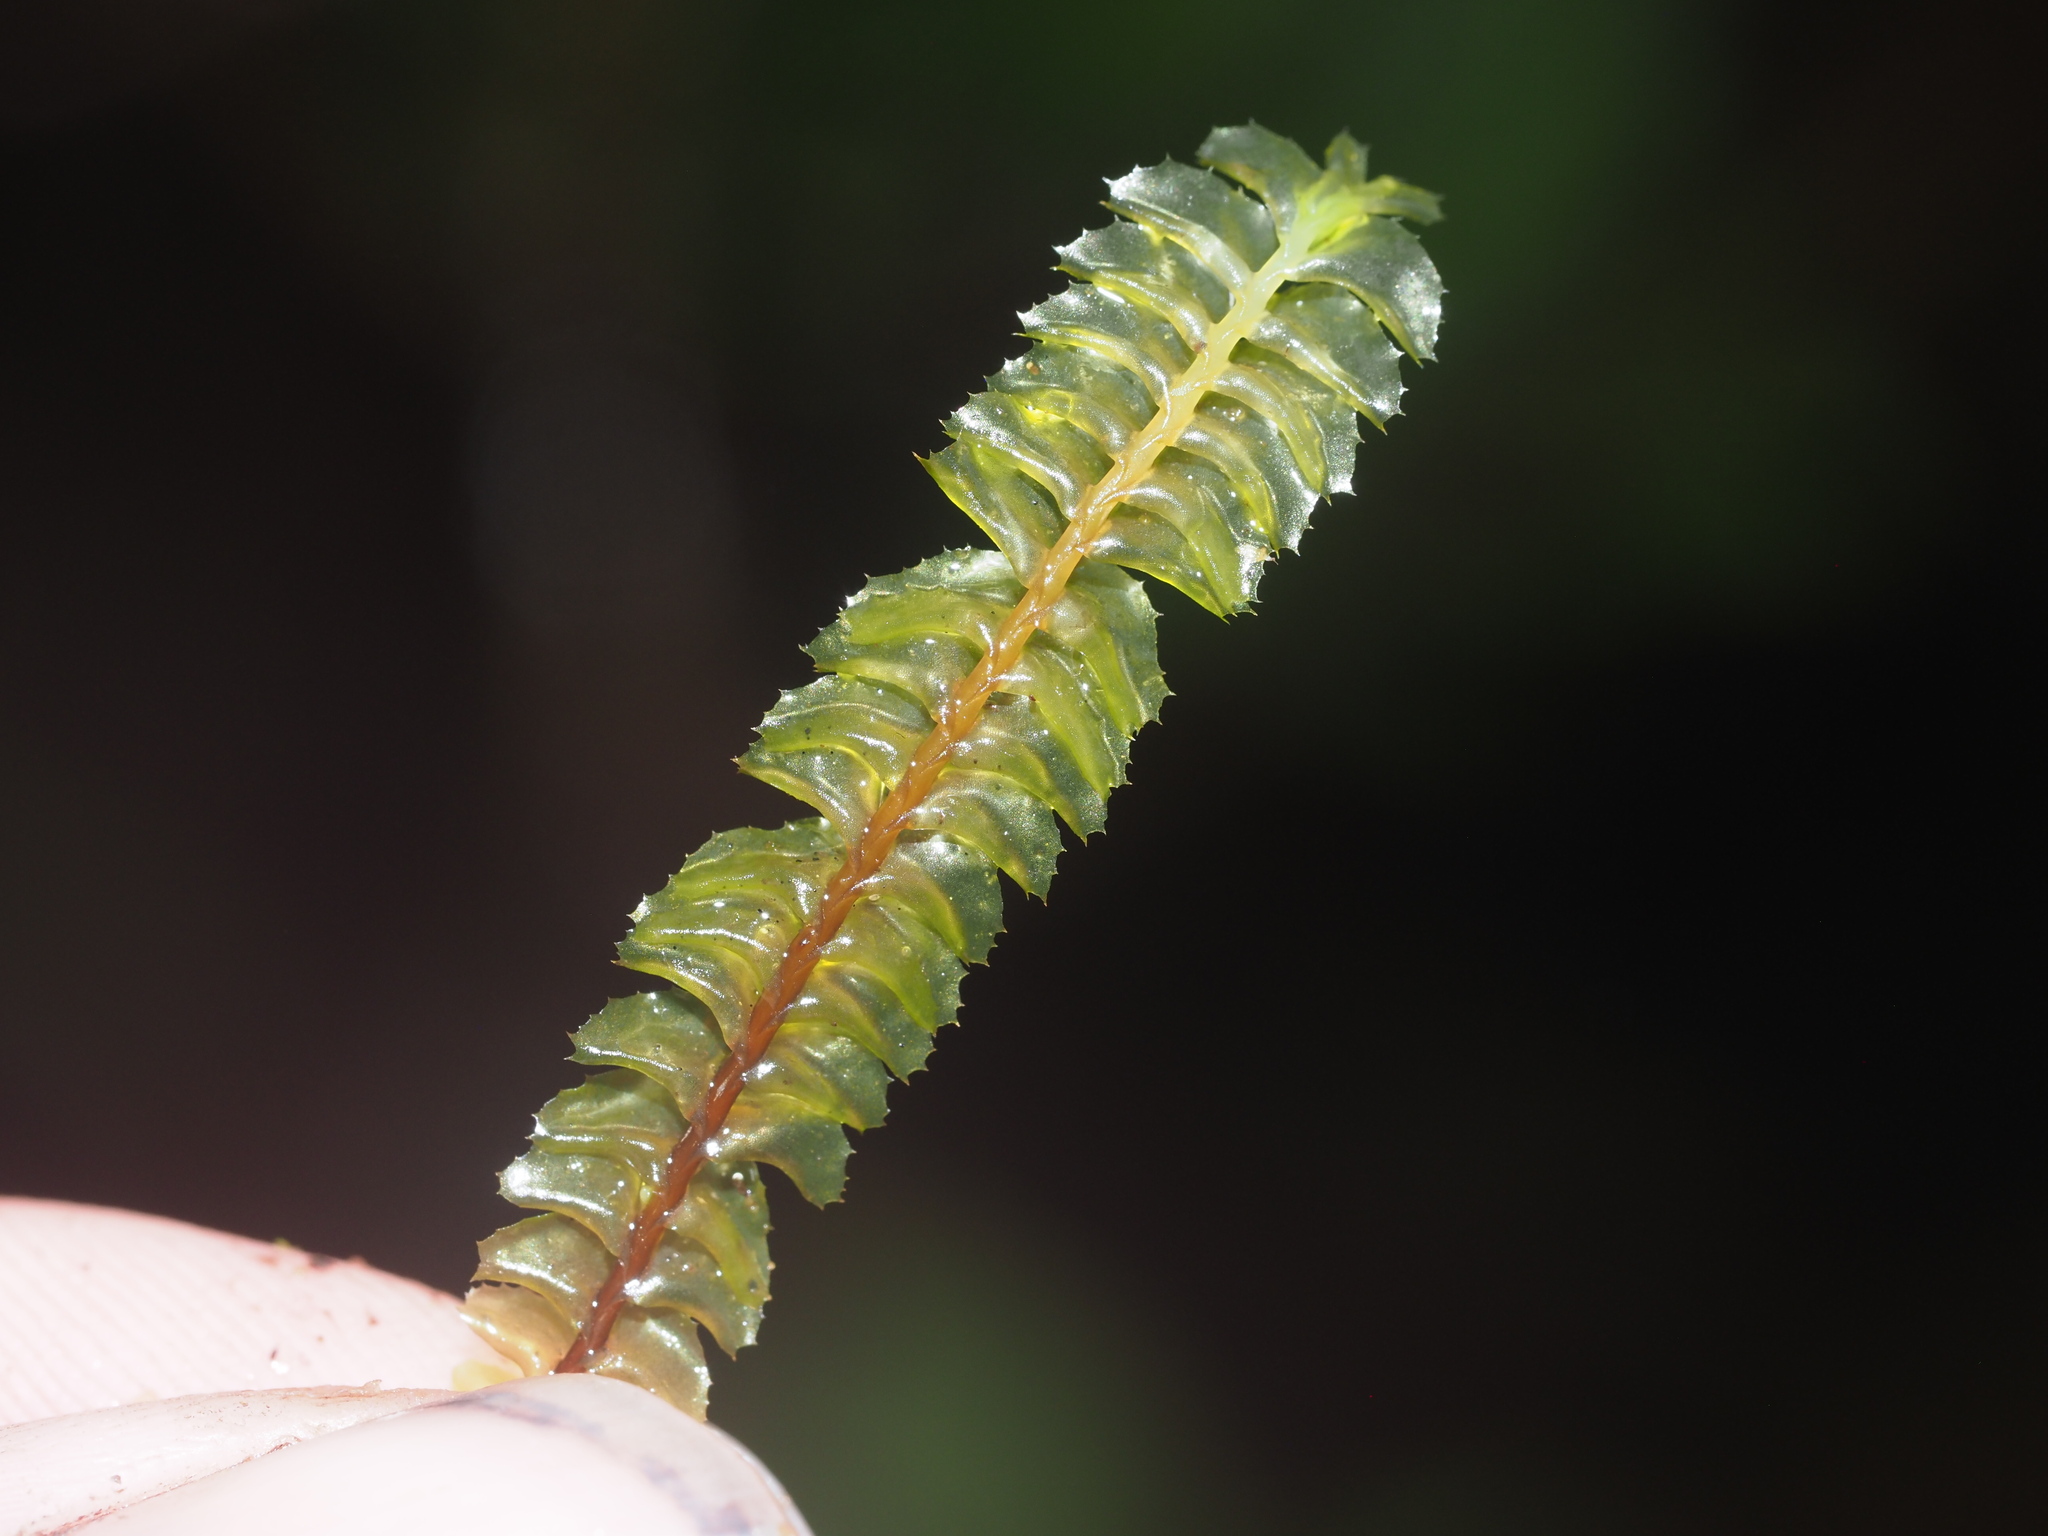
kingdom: Plantae
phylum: Marchantiophyta
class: Jungermanniopsida
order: Jungermanniales
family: Plagiochilaceae
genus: Plagiochila
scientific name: Plagiochila deflexa
